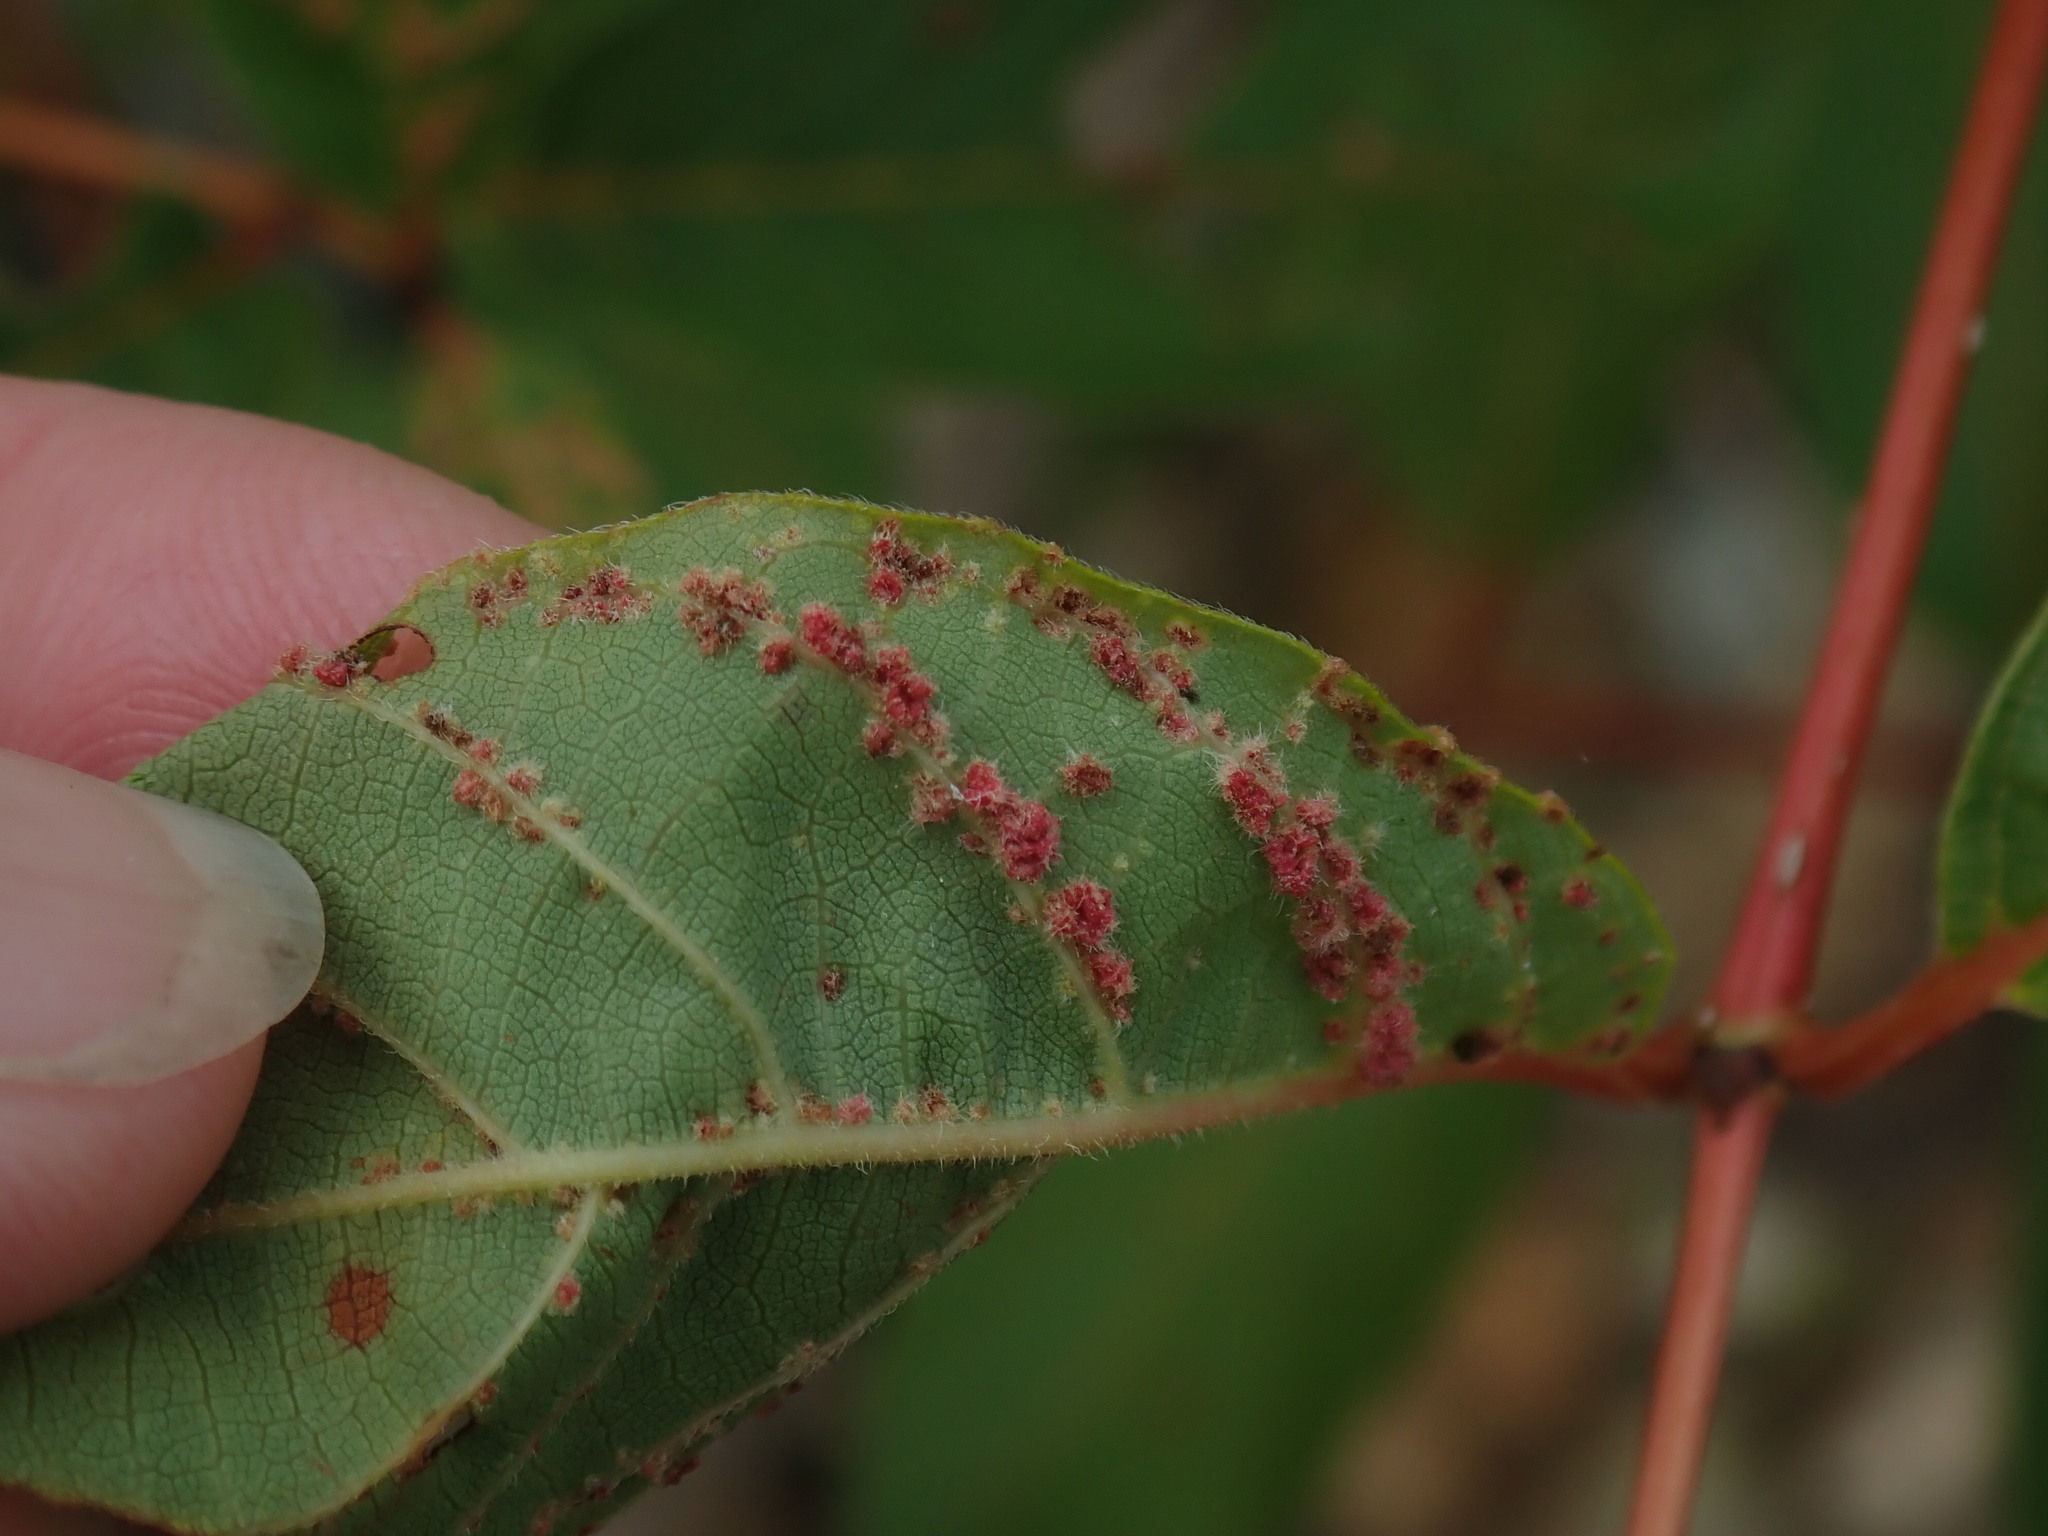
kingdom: Animalia
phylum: Arthropoda
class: Arachnida
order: Trombidiformes
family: Eriophyidae
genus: Aceria
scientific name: Aceria
